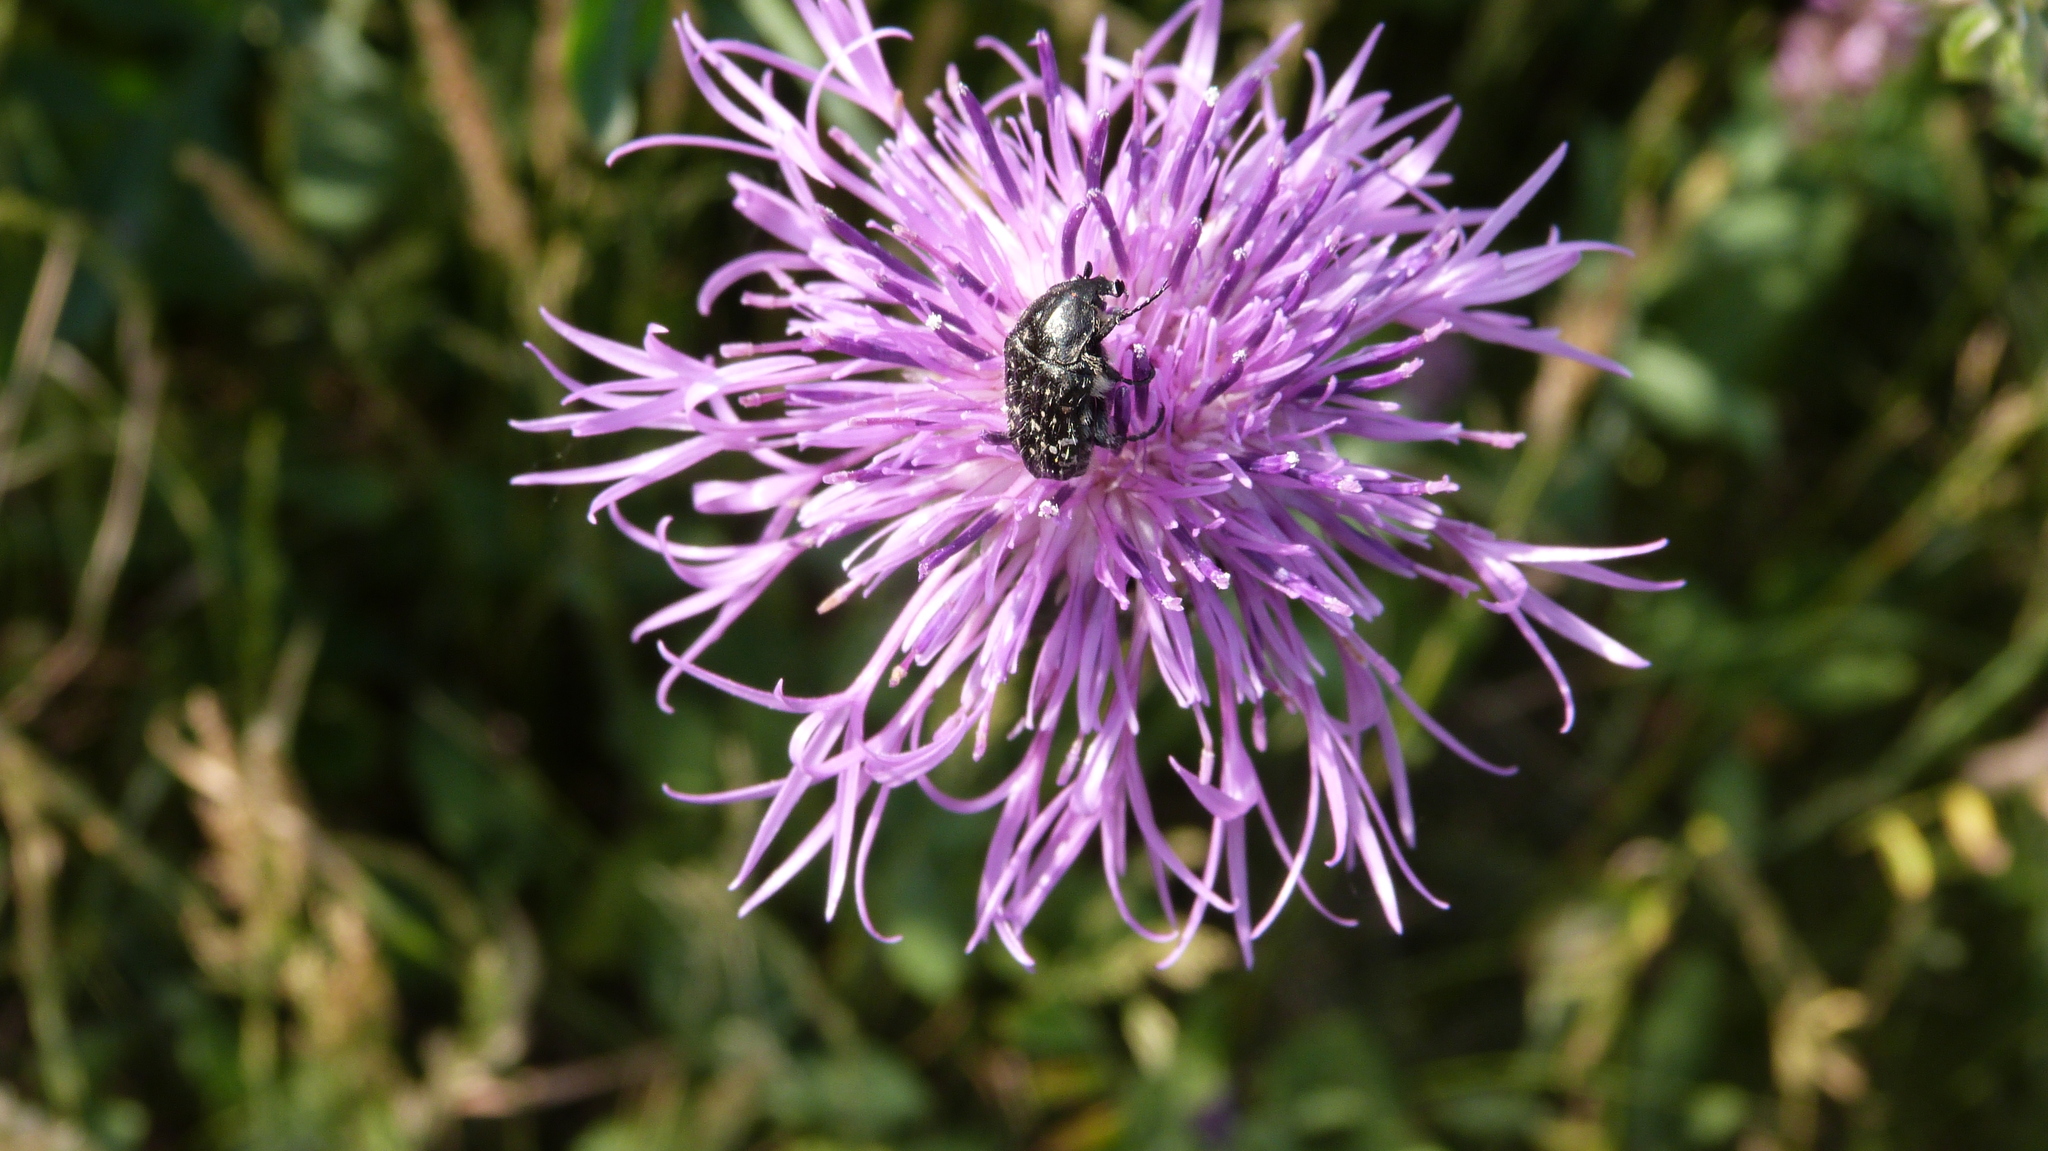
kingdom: Animalia
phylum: Arthropoda
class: Insecta
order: Coleoptera
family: Scarabaeidae
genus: Oxythyrea
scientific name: Oxythyrea funesta
